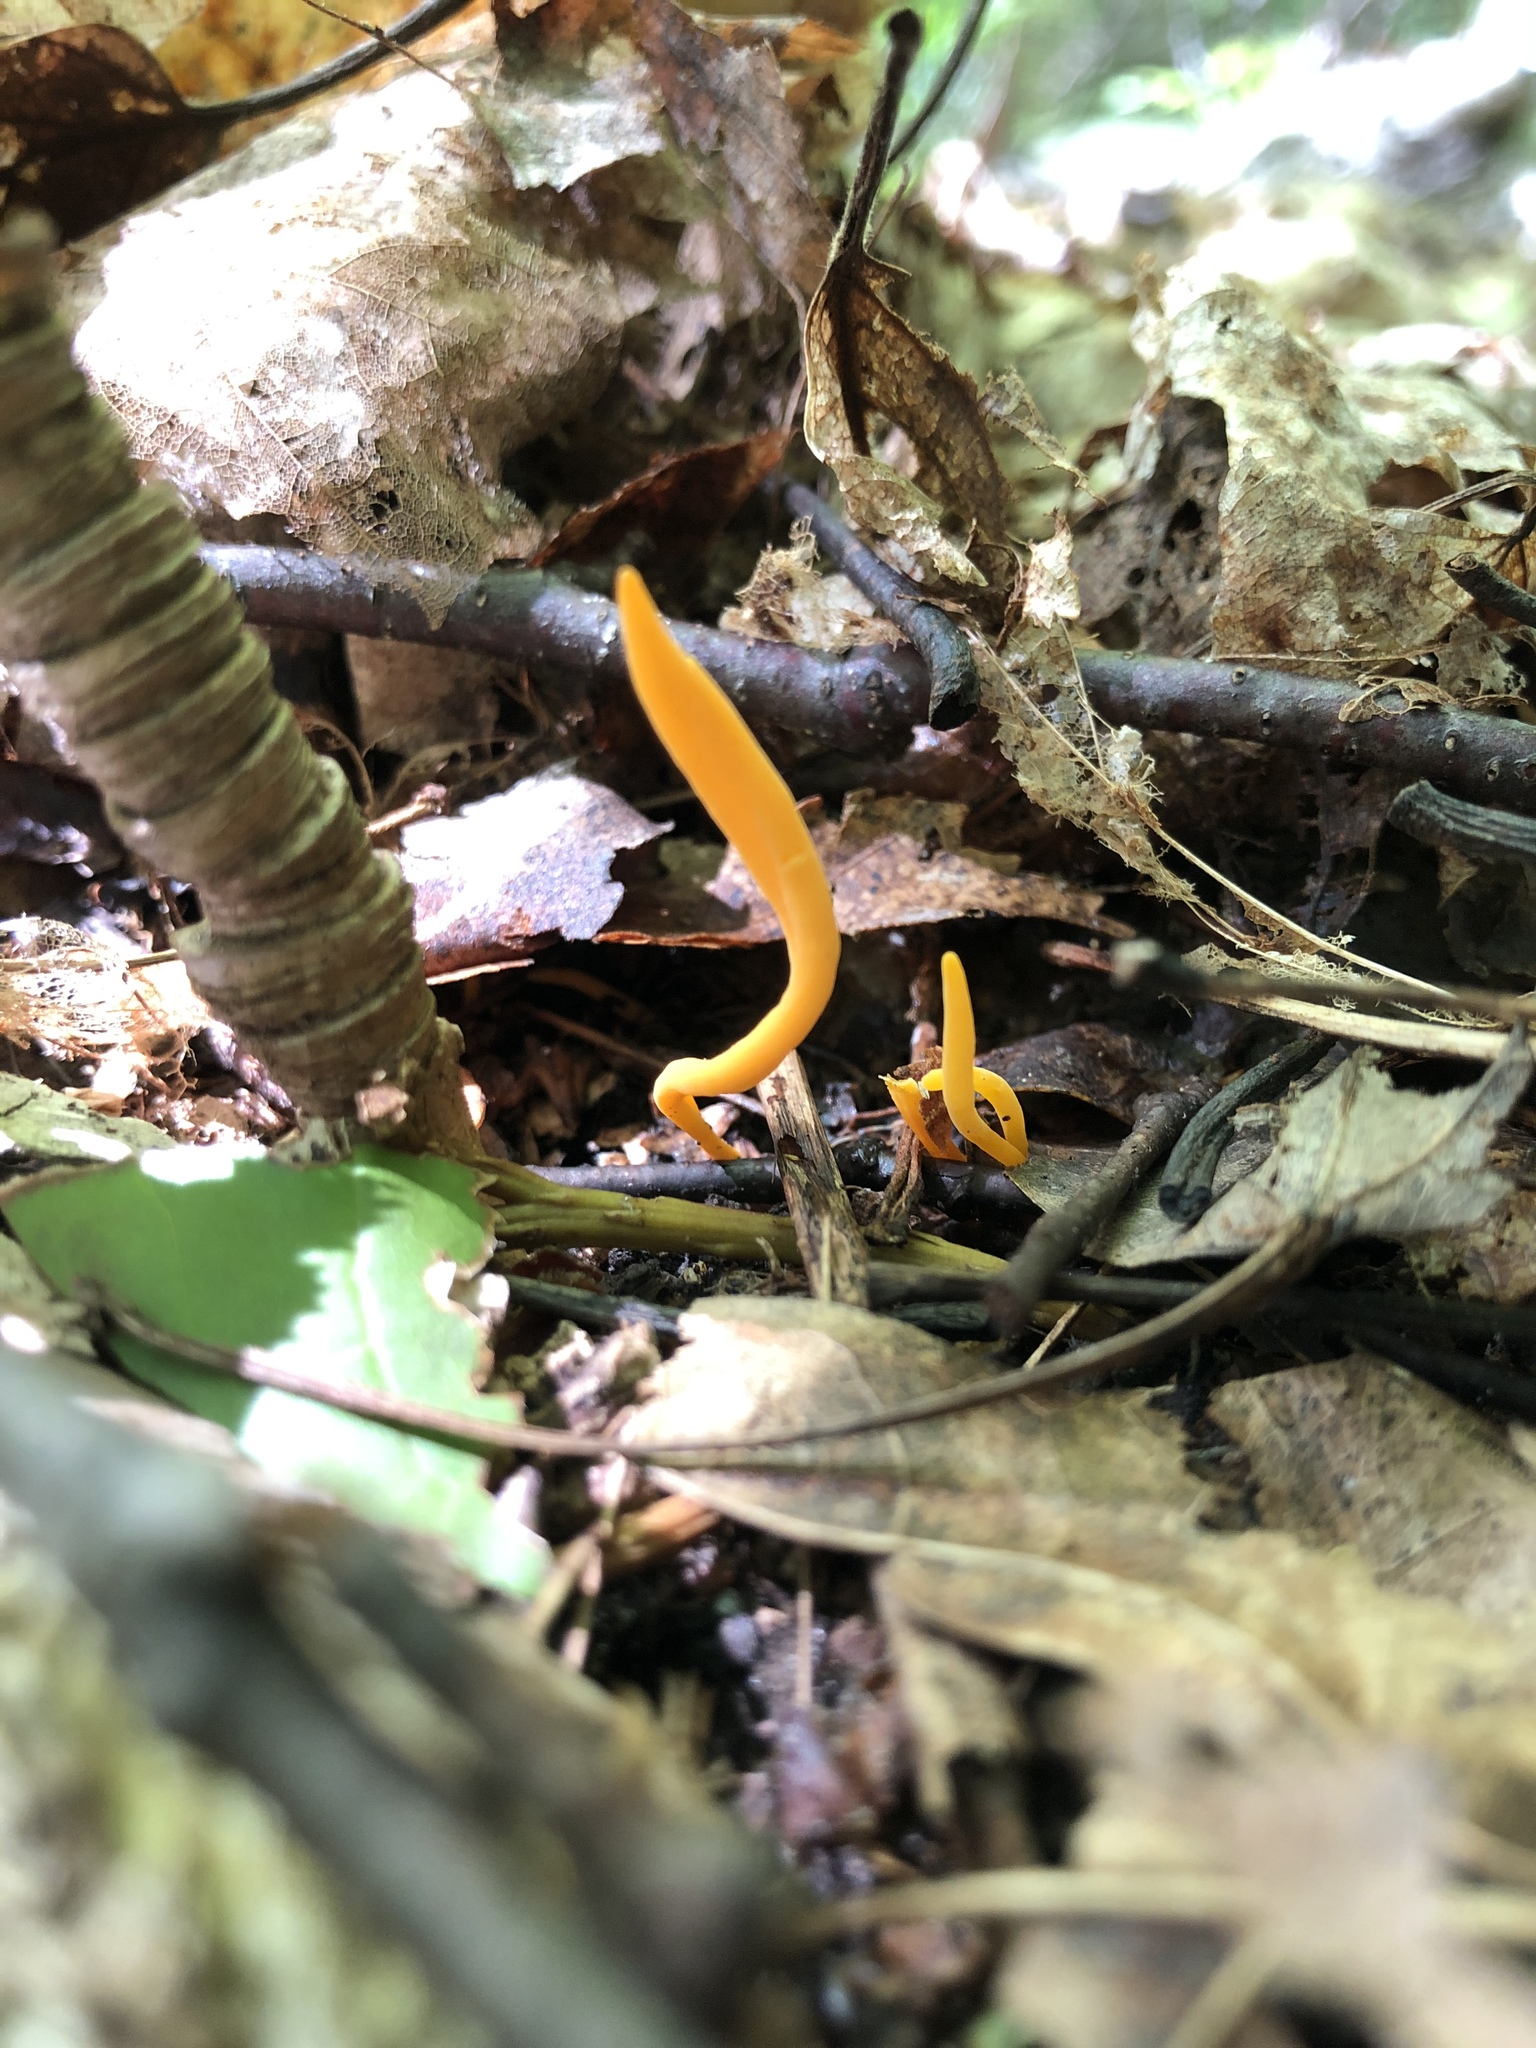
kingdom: Fungi
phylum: Basidiomycota
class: Agaricomycetes
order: Agaricales
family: Clavariaceae
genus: Clavulinopsis
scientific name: Clavulinopsis laeticolor
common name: Handsome club
